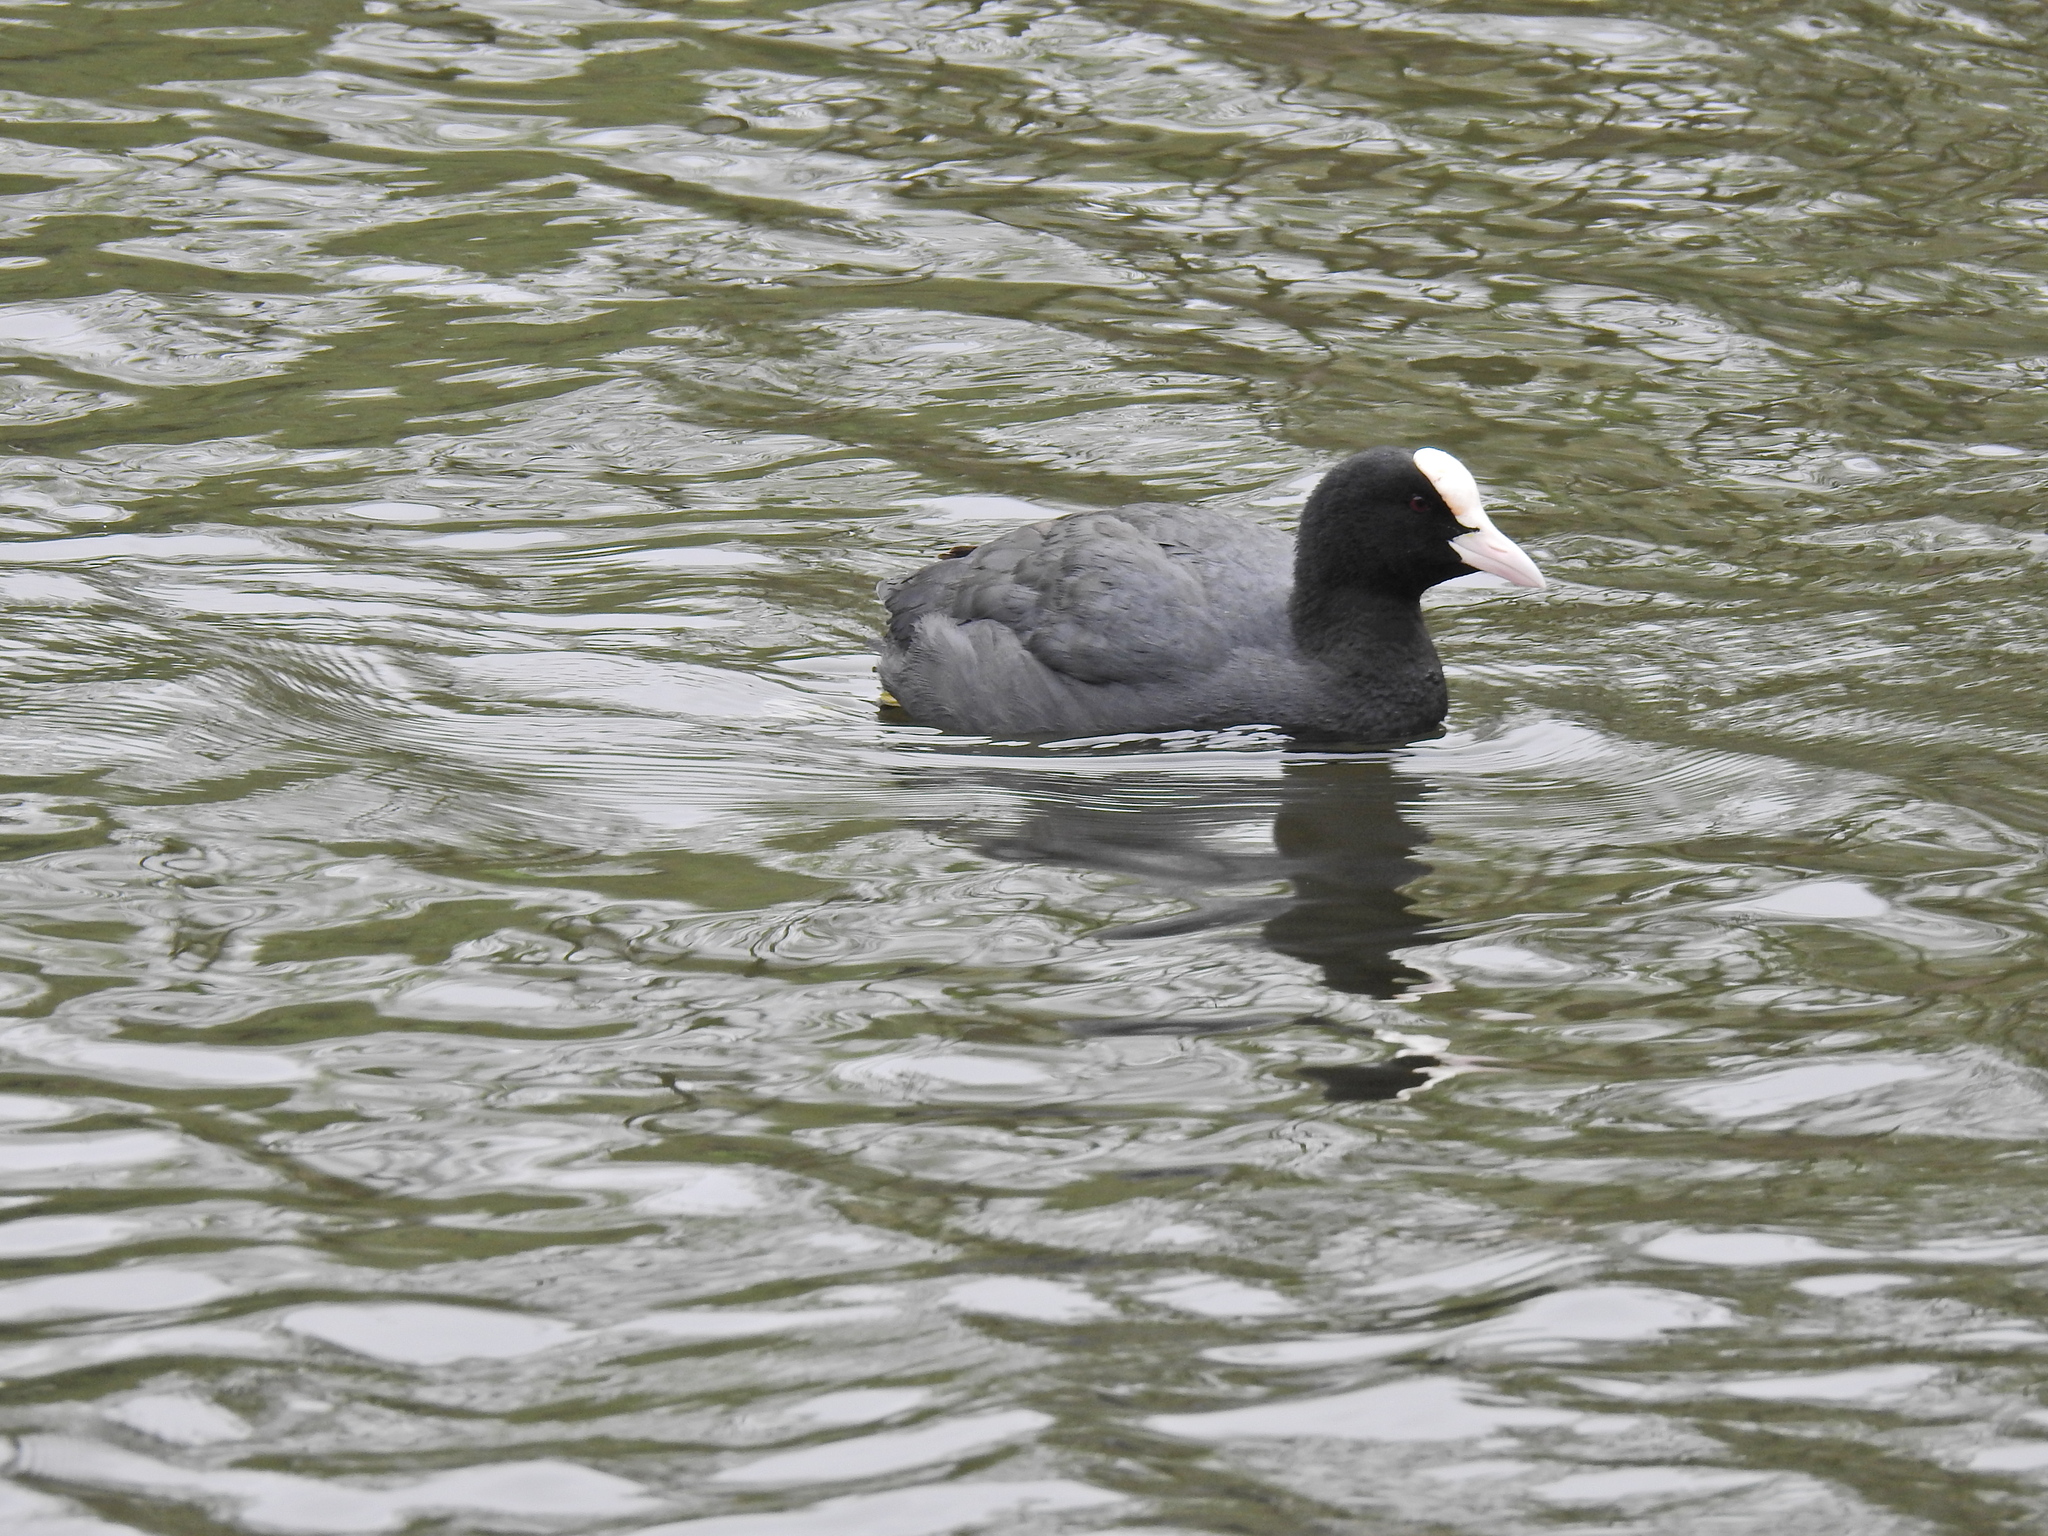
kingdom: Animalia
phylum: Chordata
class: Aves
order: Gruiformes
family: Rallidae
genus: Fulica
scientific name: Fulica atra
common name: Eurasian coot
